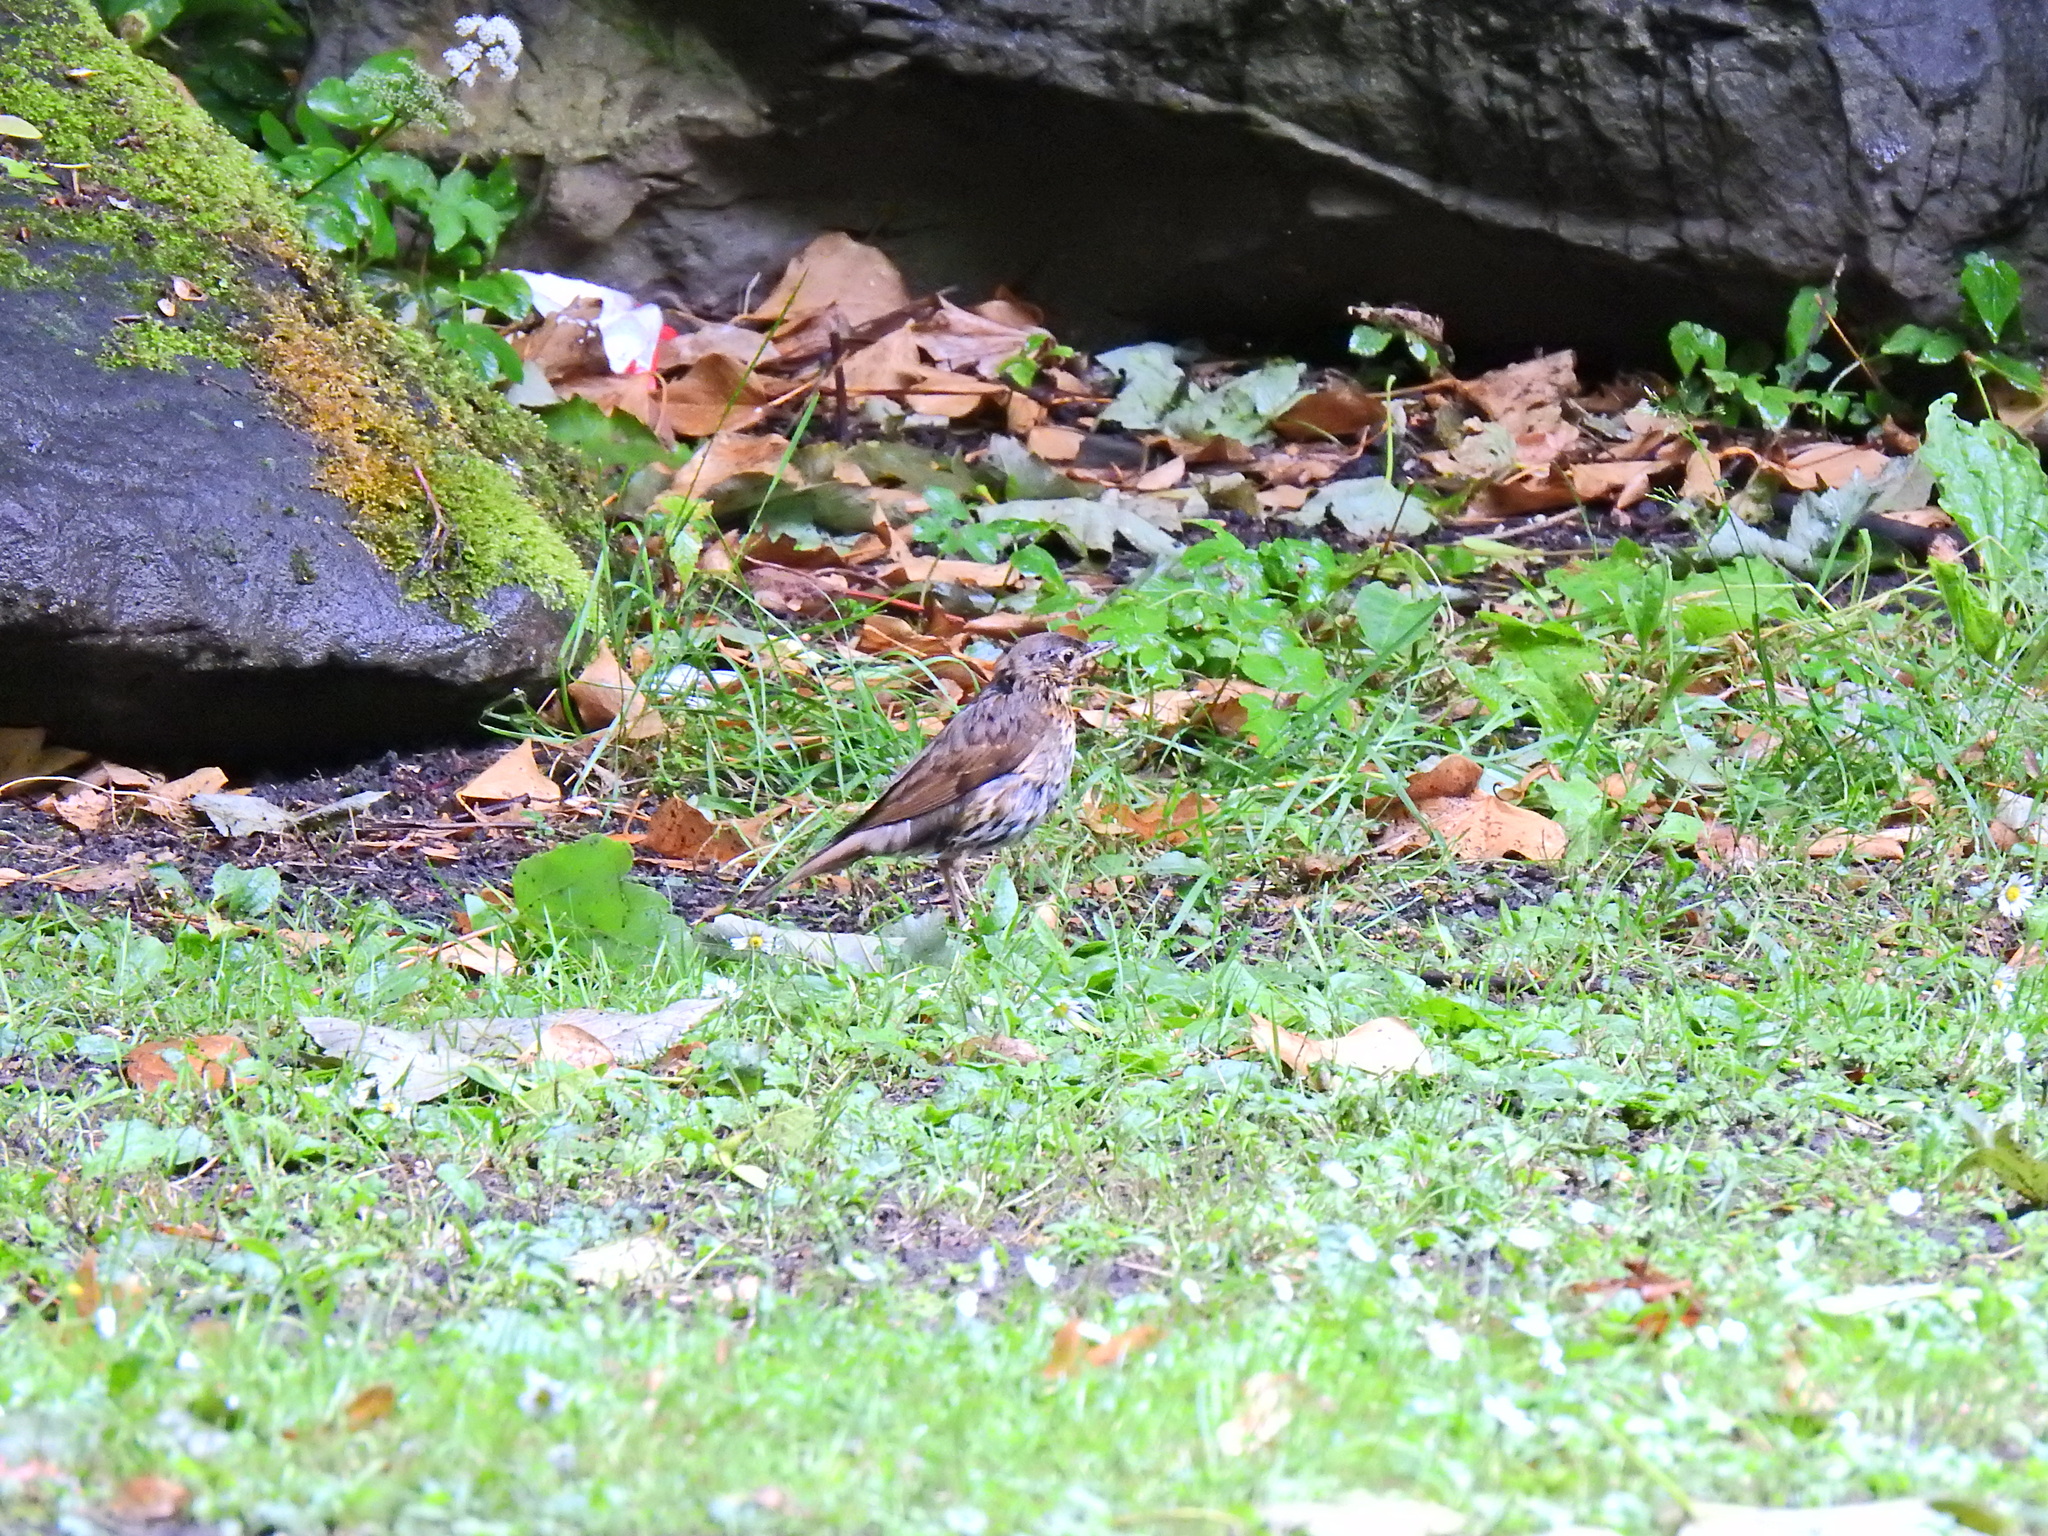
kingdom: Animalia
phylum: Chordata
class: Aves
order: Passeriformes
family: Turdidae
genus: Turdus
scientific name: Turdus philomelos
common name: Song thrush
